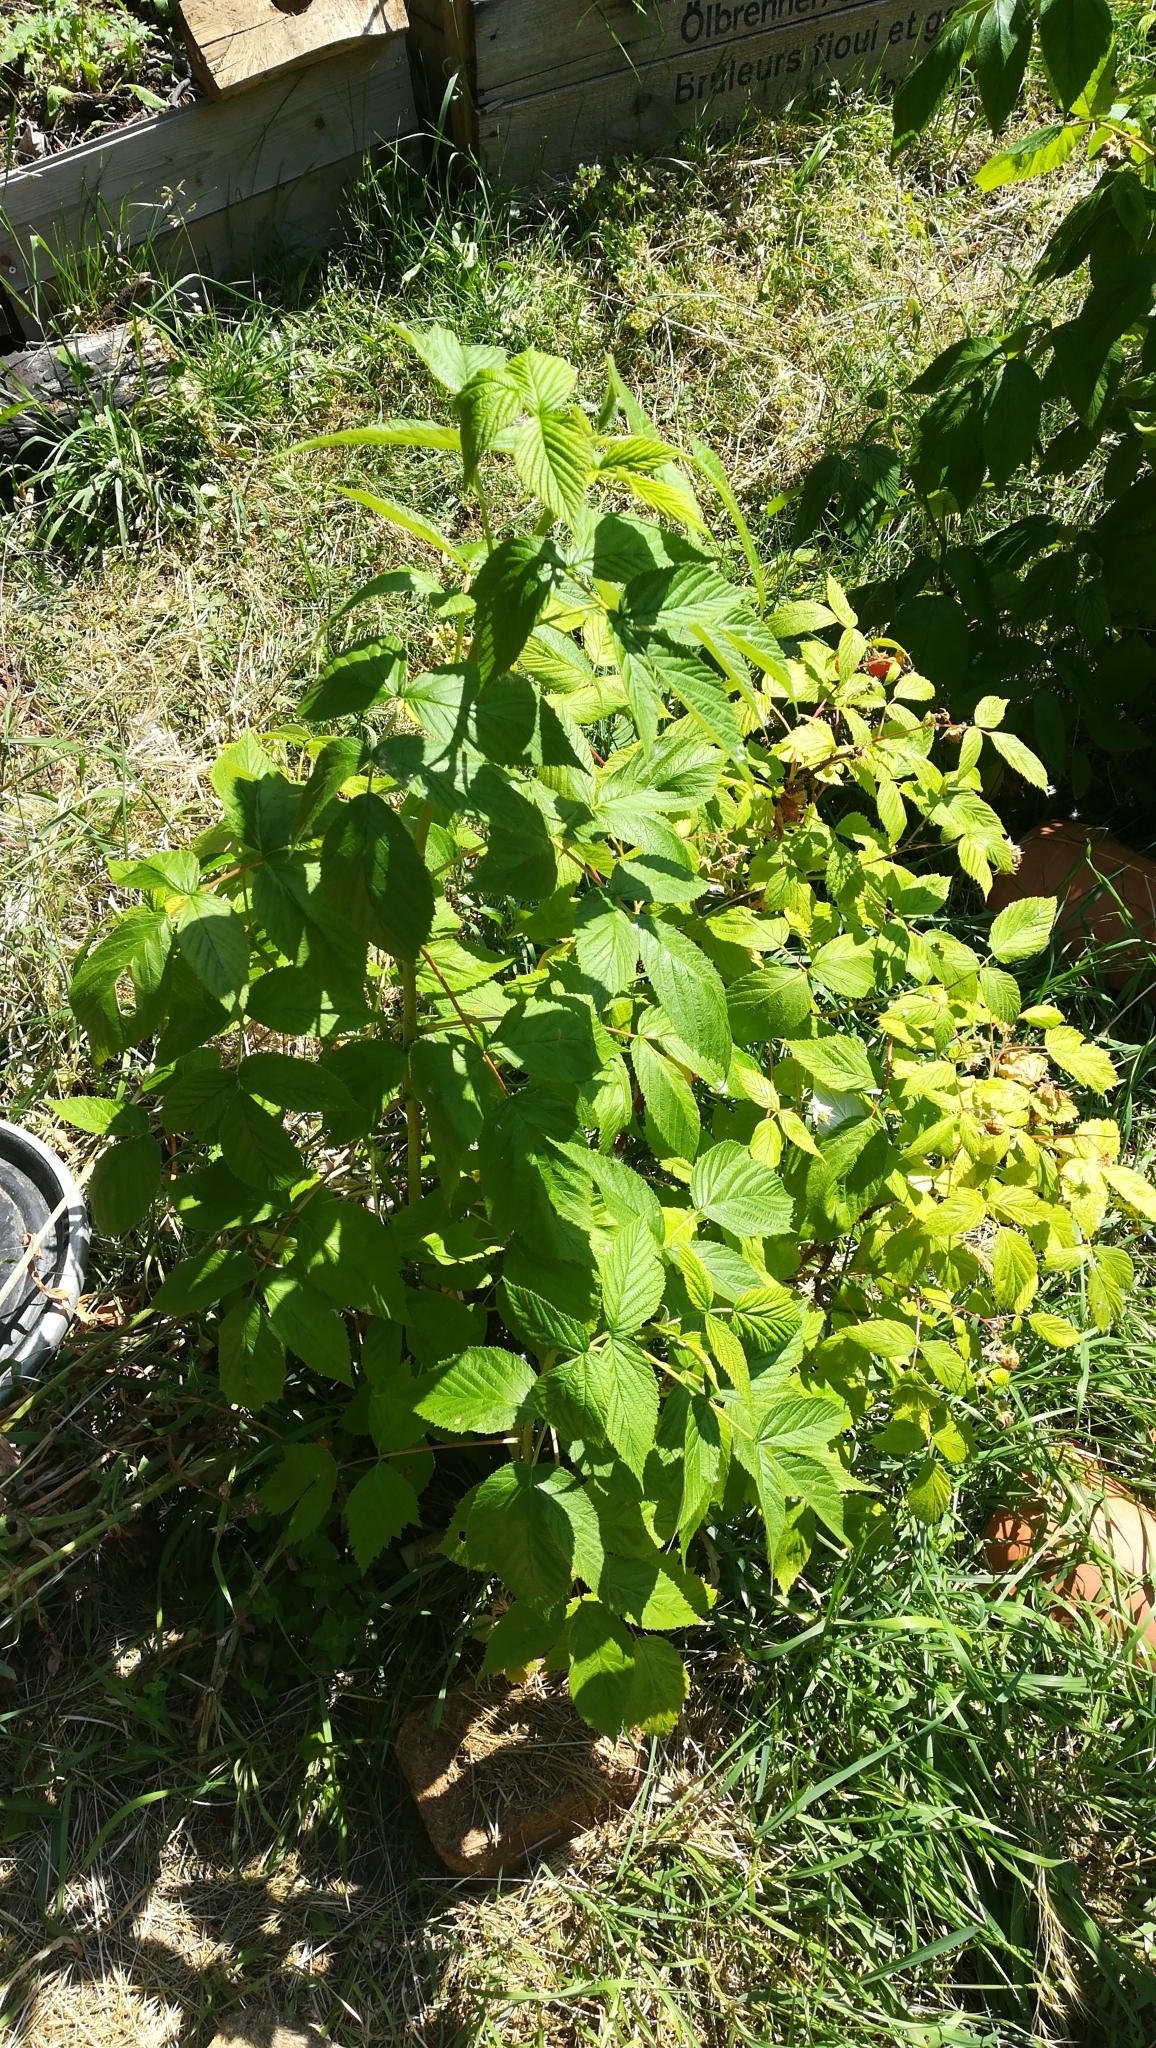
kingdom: Plantae
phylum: Tracheophyta
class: Magnoliopsida
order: Rosales
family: Rosaceae
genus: Rubus
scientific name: Rubus idaeus
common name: Raspberry
